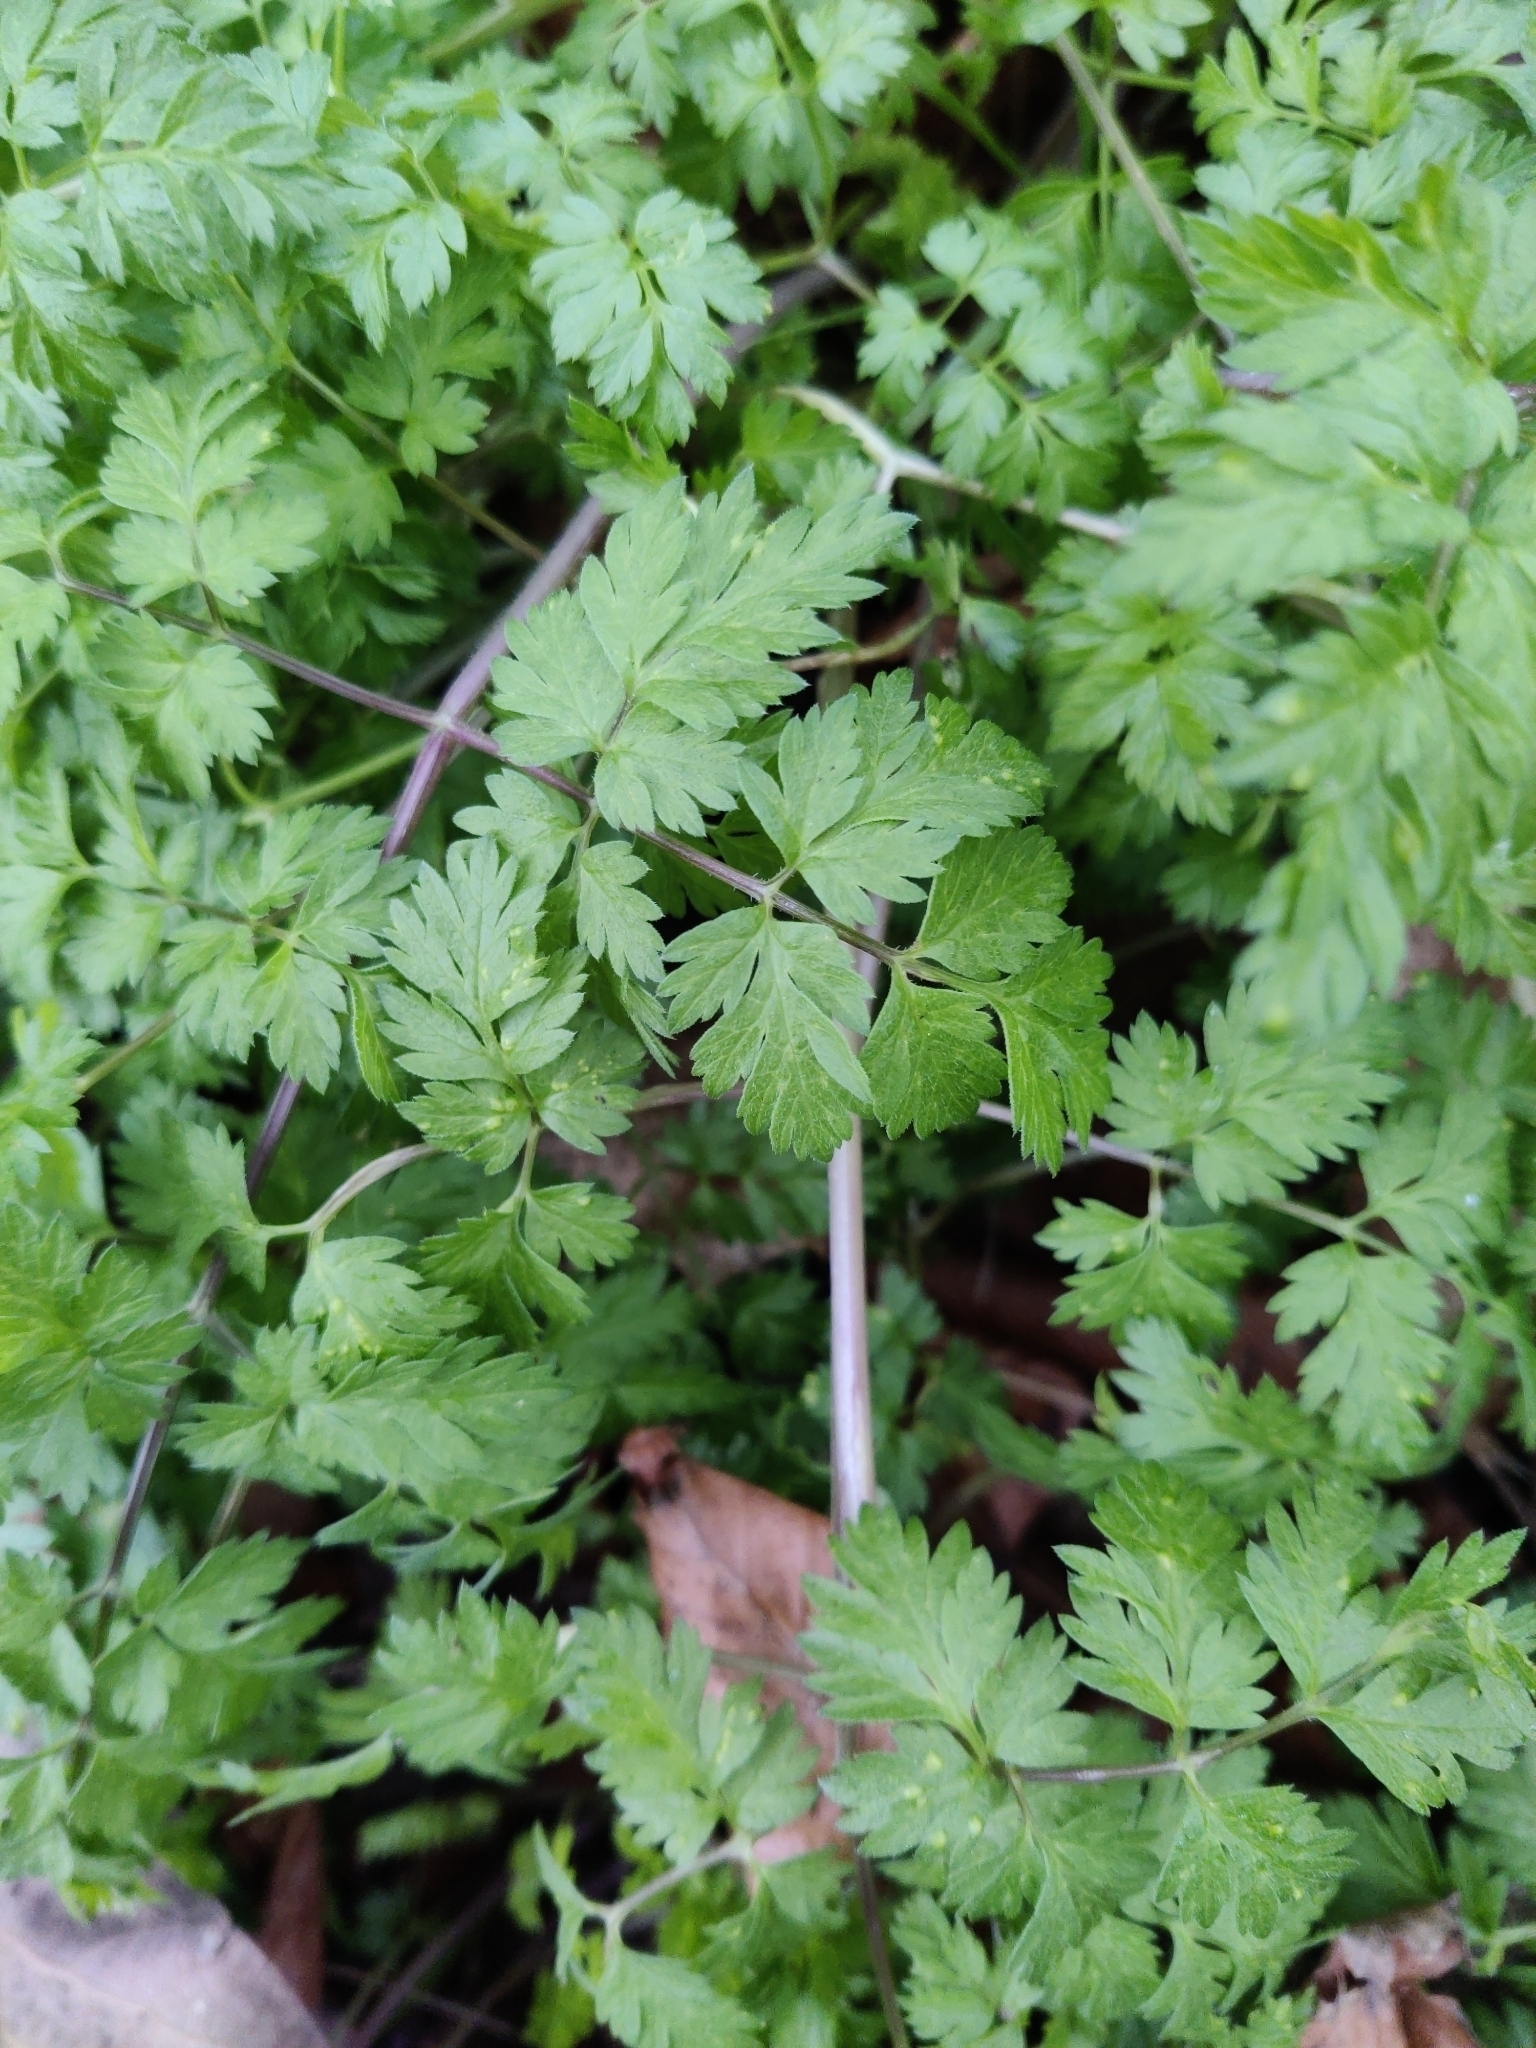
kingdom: Plantae
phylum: Tracheophyta
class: Magnoliopsida
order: Apiales
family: Apiaceae
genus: Anthriscus
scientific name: Anthriscus sylvestris
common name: Cow parsley
